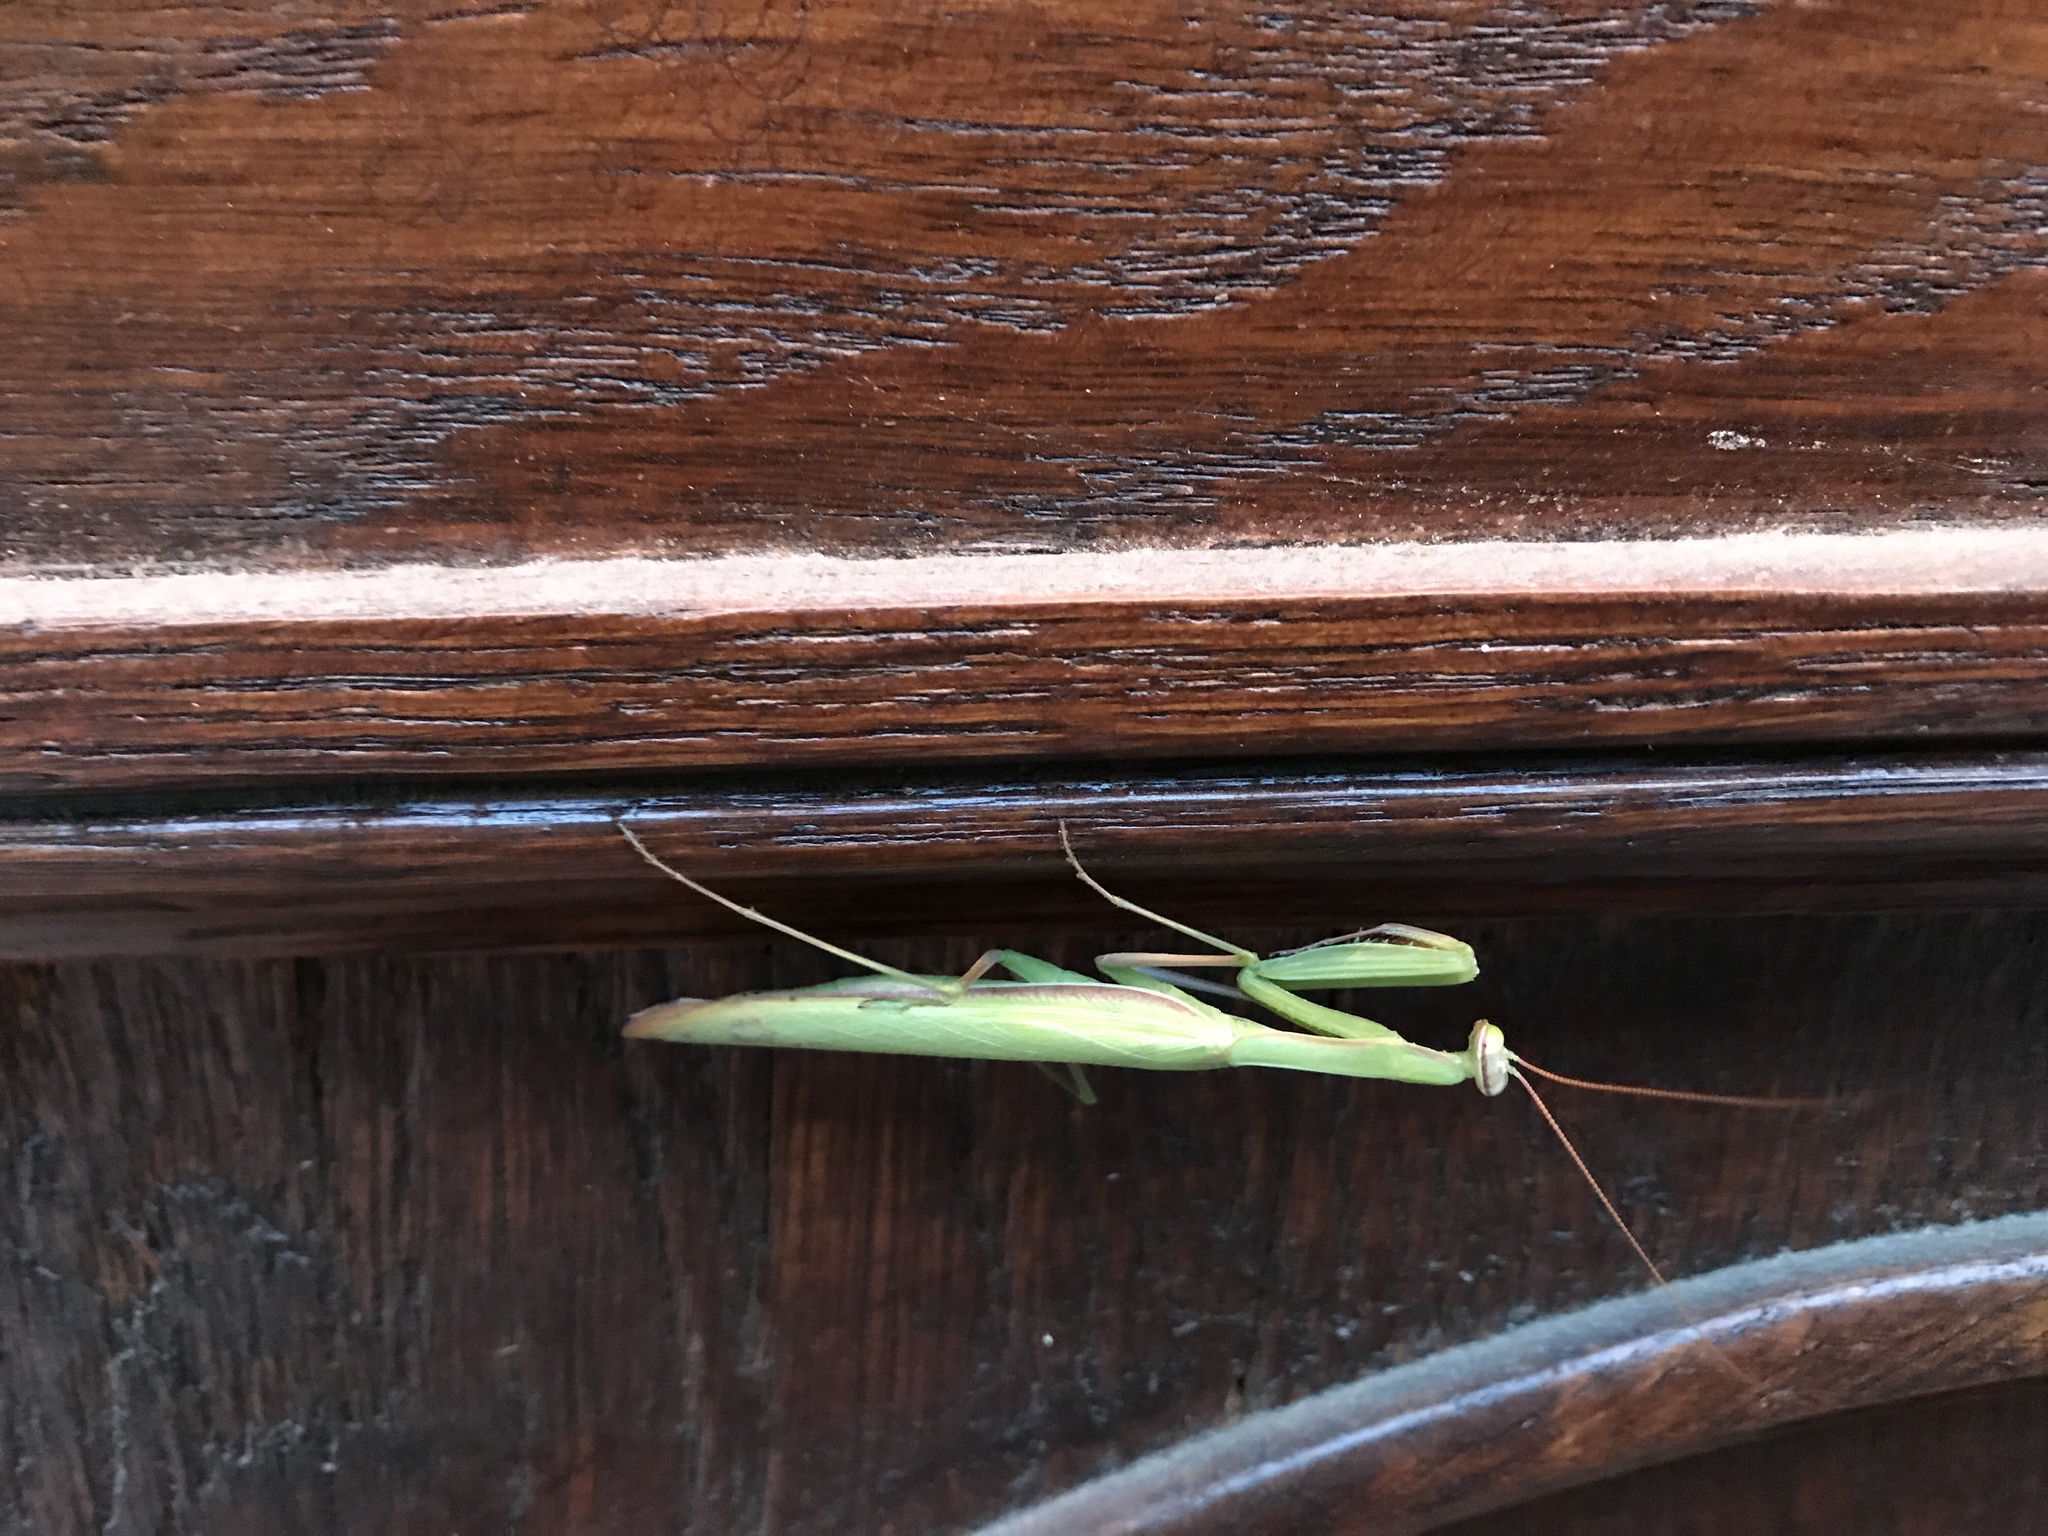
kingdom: Animalia
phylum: Arthropoda
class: Insecta
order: Mantodea
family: Mantidae
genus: Mantis
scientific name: Mantis religiosa
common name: Praying mantis
